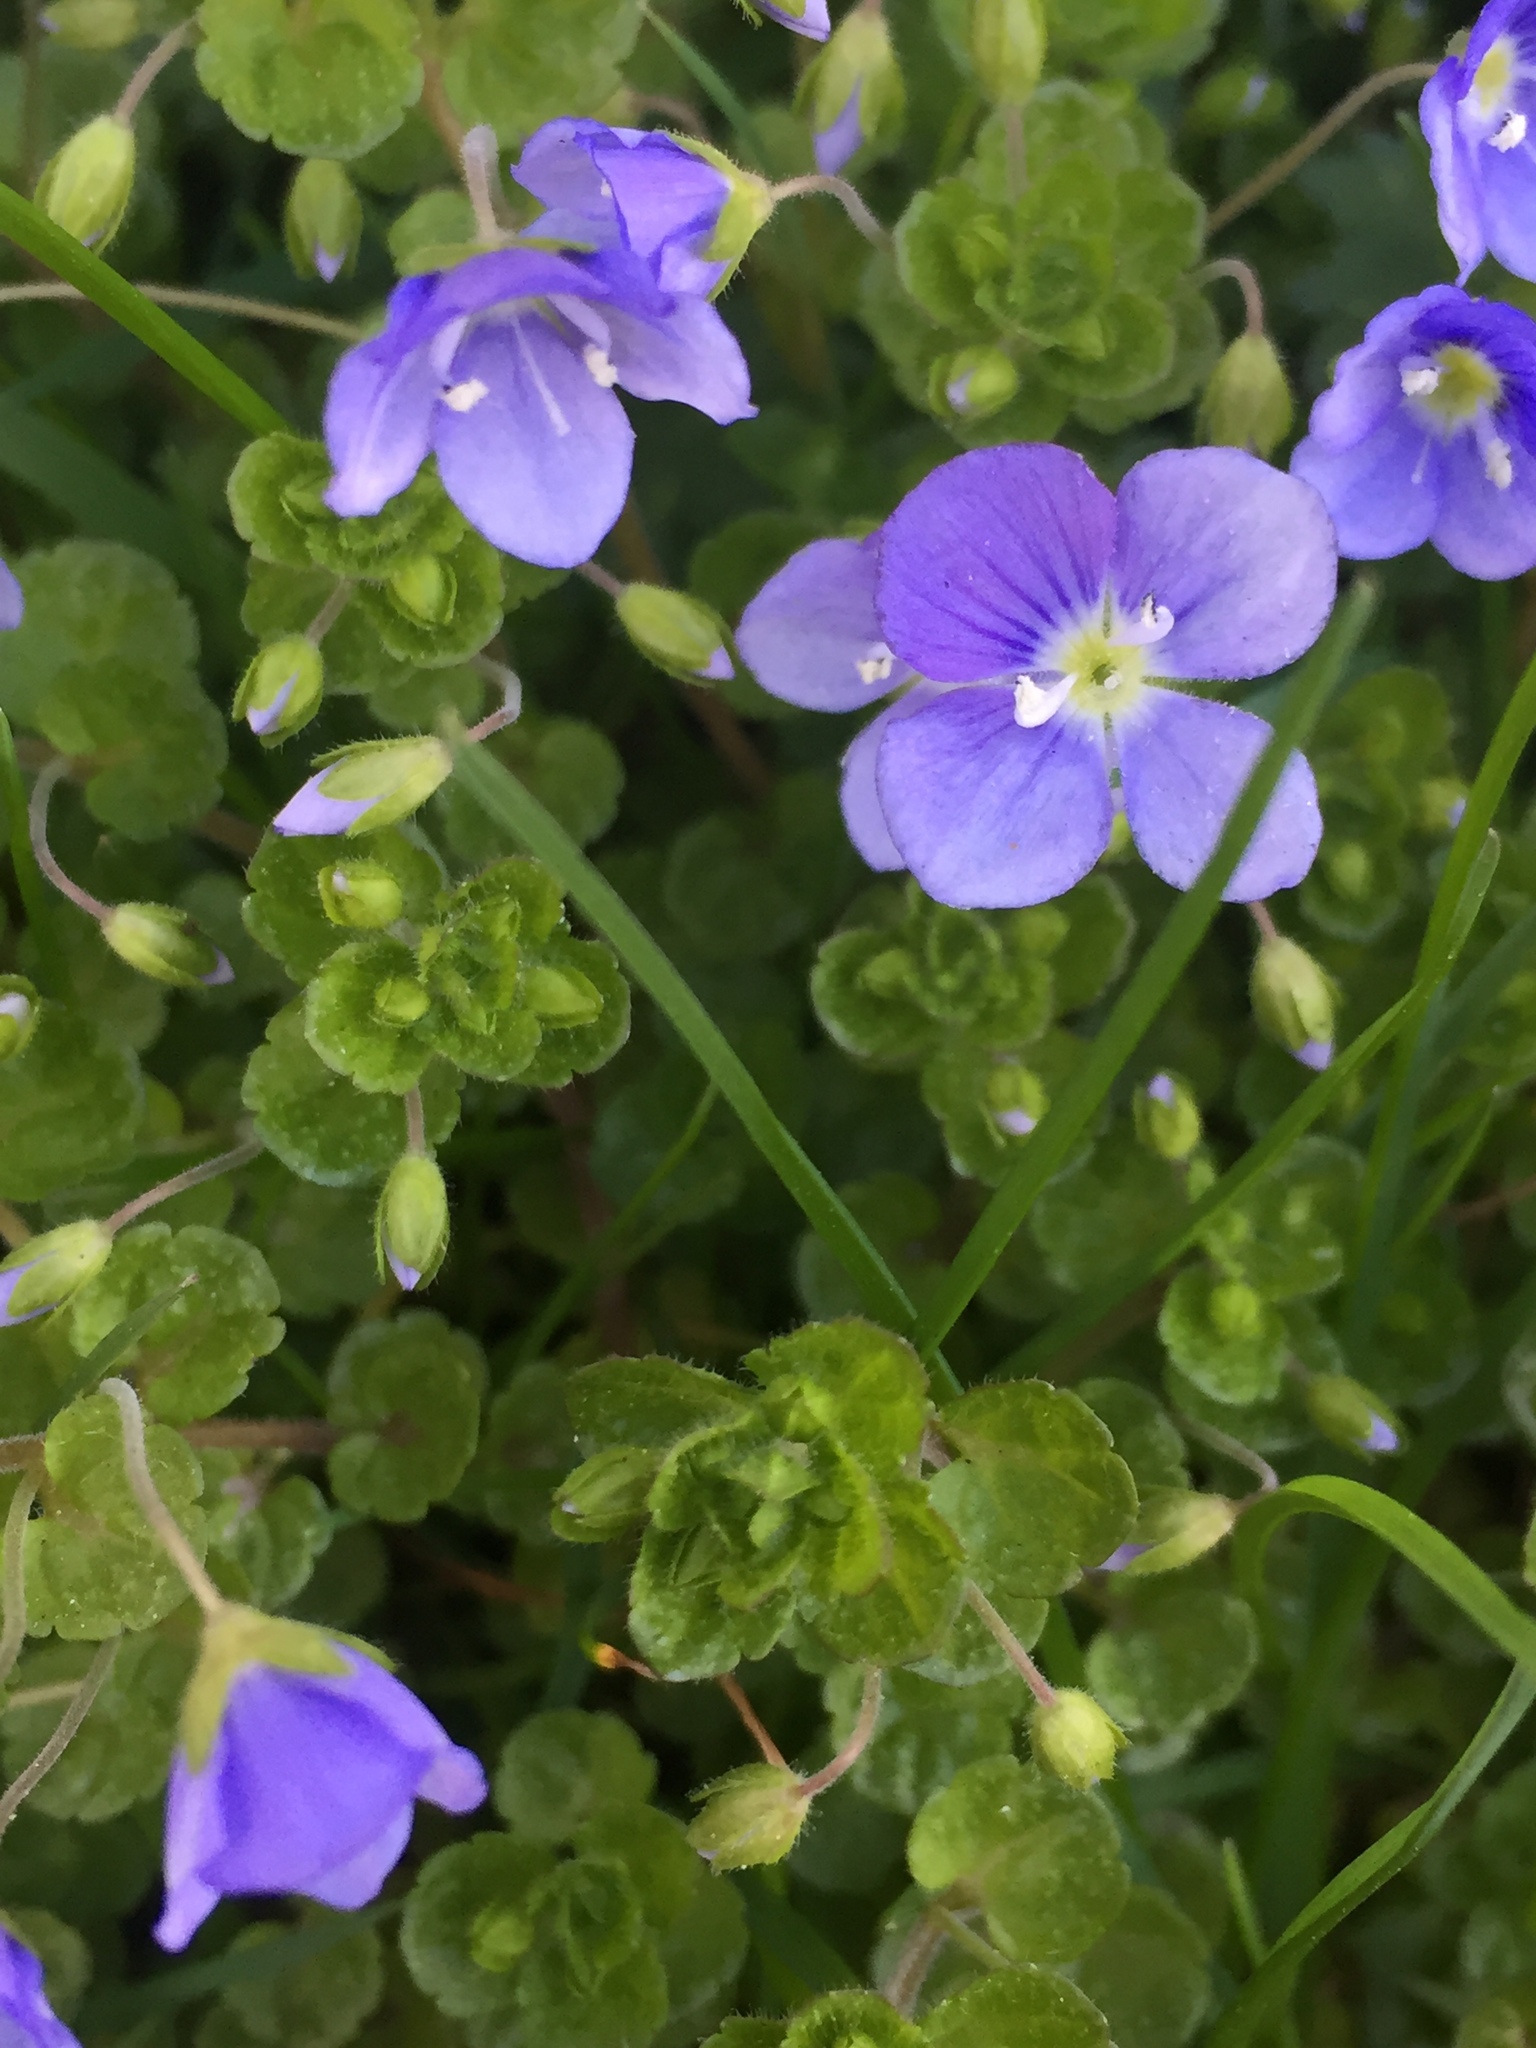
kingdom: Plantae
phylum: Tracheophyta
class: Magnoliopsida
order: Lamiales
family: Plantaginaceae
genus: Veronica
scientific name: Veronica filiformis
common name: Slender speedwell
